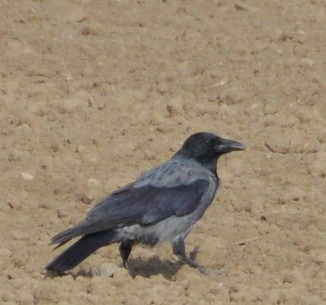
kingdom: Animalia
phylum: Chordata
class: Aves
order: Passeriformes
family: Corvidae
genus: Corvus
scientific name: Corvus
